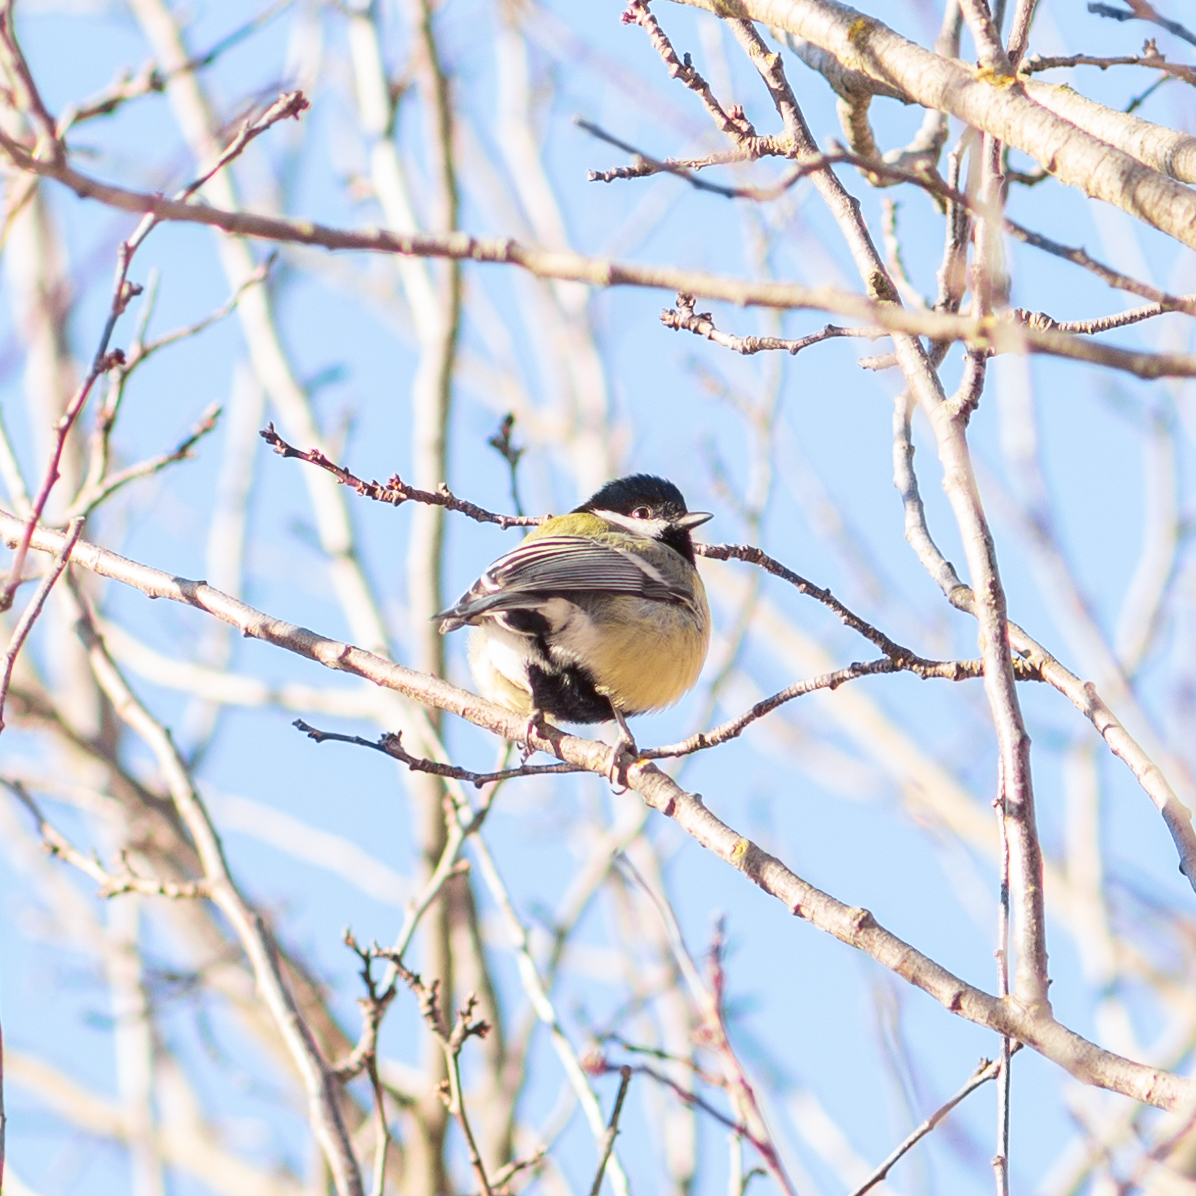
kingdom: Animalia
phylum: Chordata
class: Aves
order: Passeriformes
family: Paridae
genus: Parus
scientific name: Parus major
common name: Great tit
